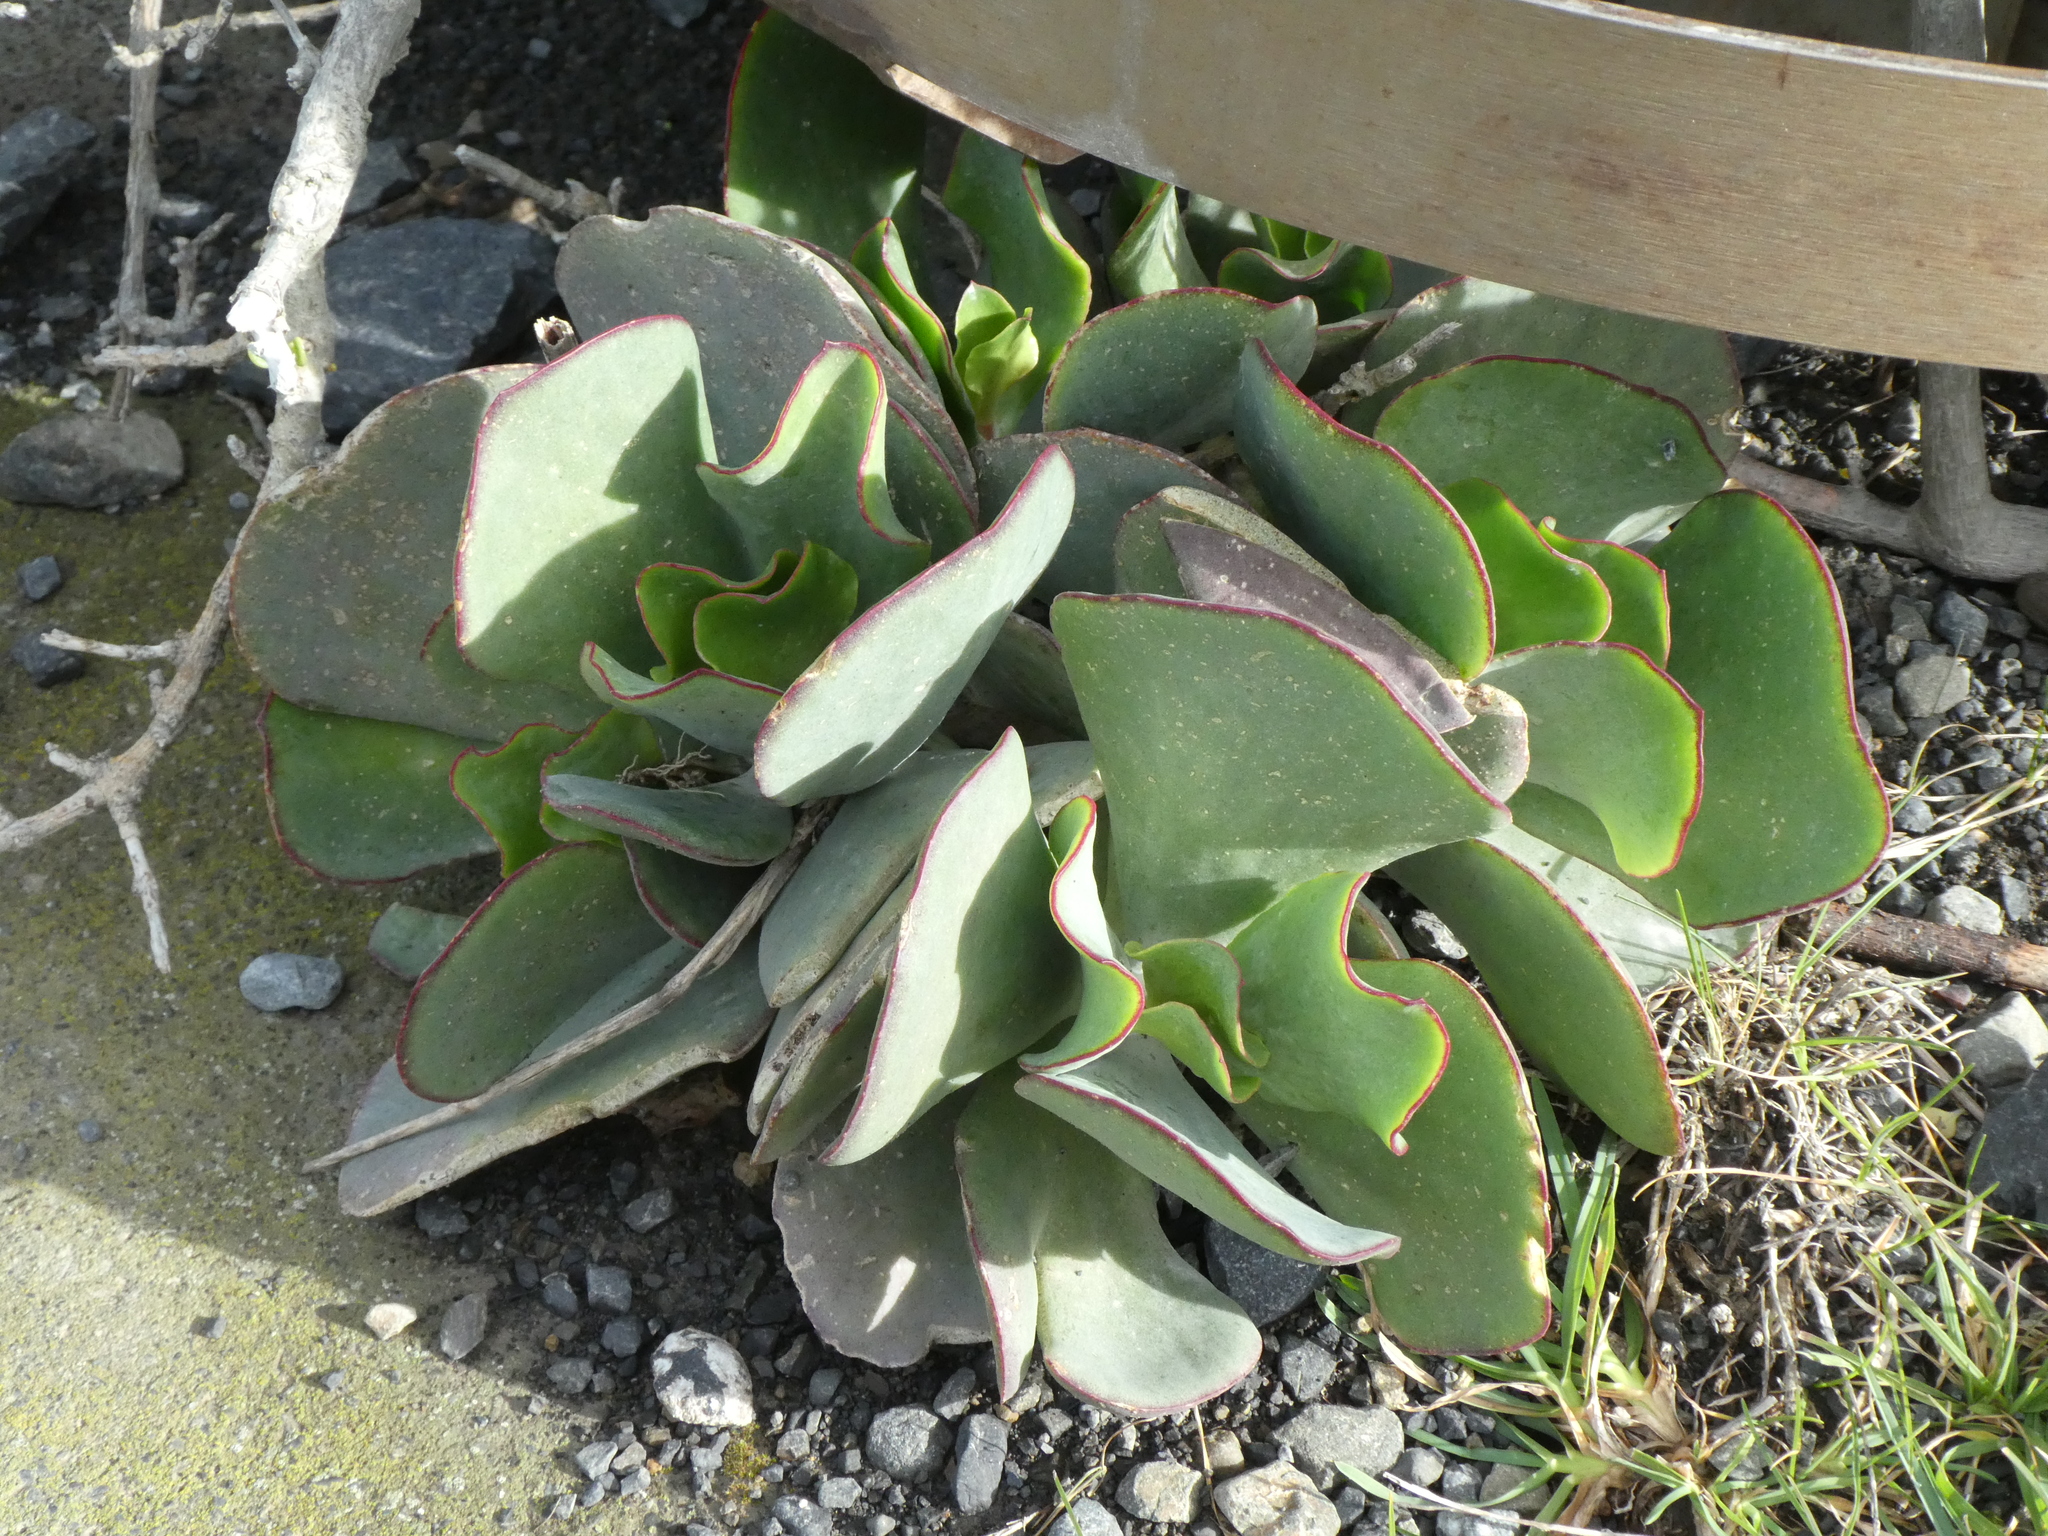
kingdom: Plantae
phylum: Tracheophyta
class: Magnoliopsida
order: Saxifragales
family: Crassulaceae
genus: Cotyledon
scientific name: Cotyledon orbiculata
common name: Pig's ear
